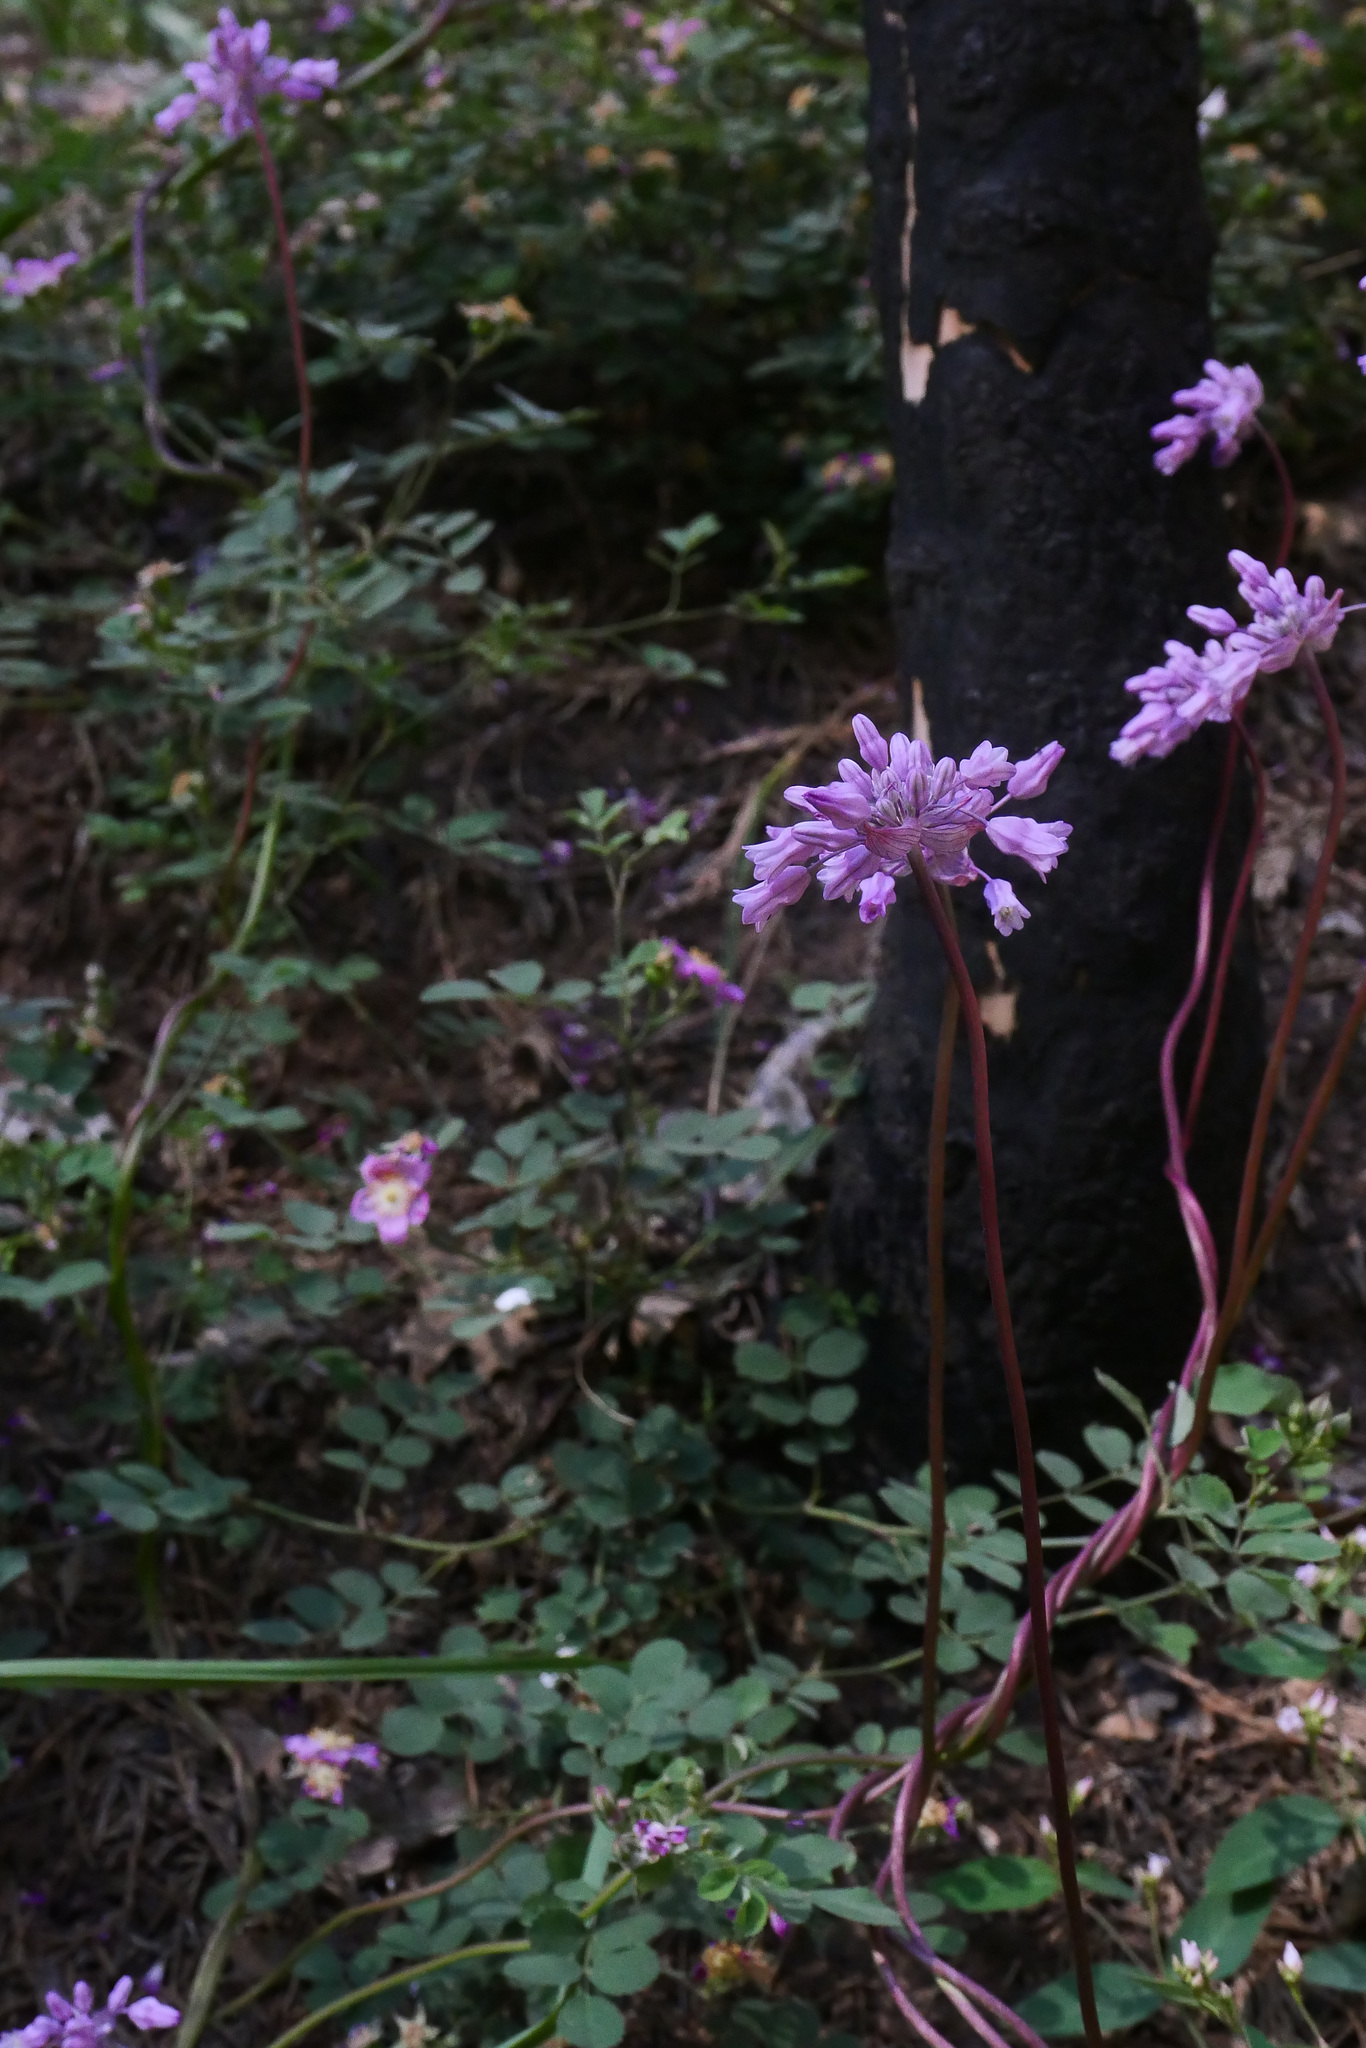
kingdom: Plantae
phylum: Tracheophyta
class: Liliopsida
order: Asparagales
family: Asparagaceae
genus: Dichelostemma
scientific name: Dichelostemma volubile
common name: Trining brodiaea
